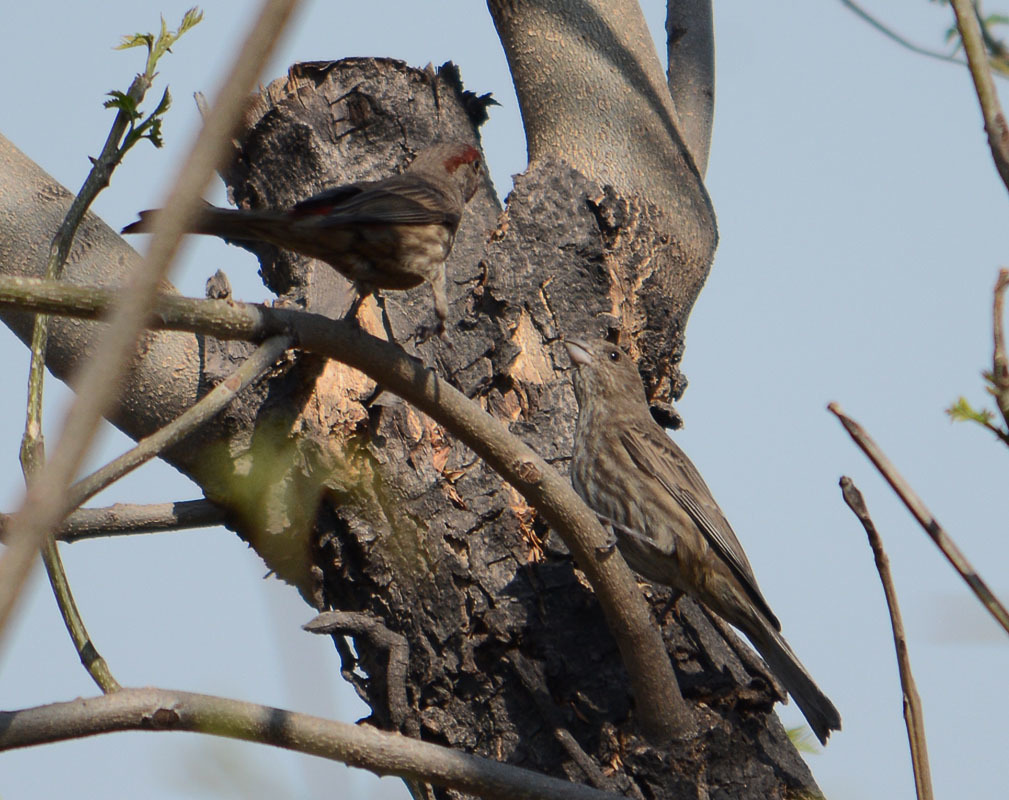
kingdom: Animalia
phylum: Chordata
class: Aves
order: Passeriformes
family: Fringillidae
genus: Haemorhous
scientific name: Haemorhous mexicanus
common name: House finch
